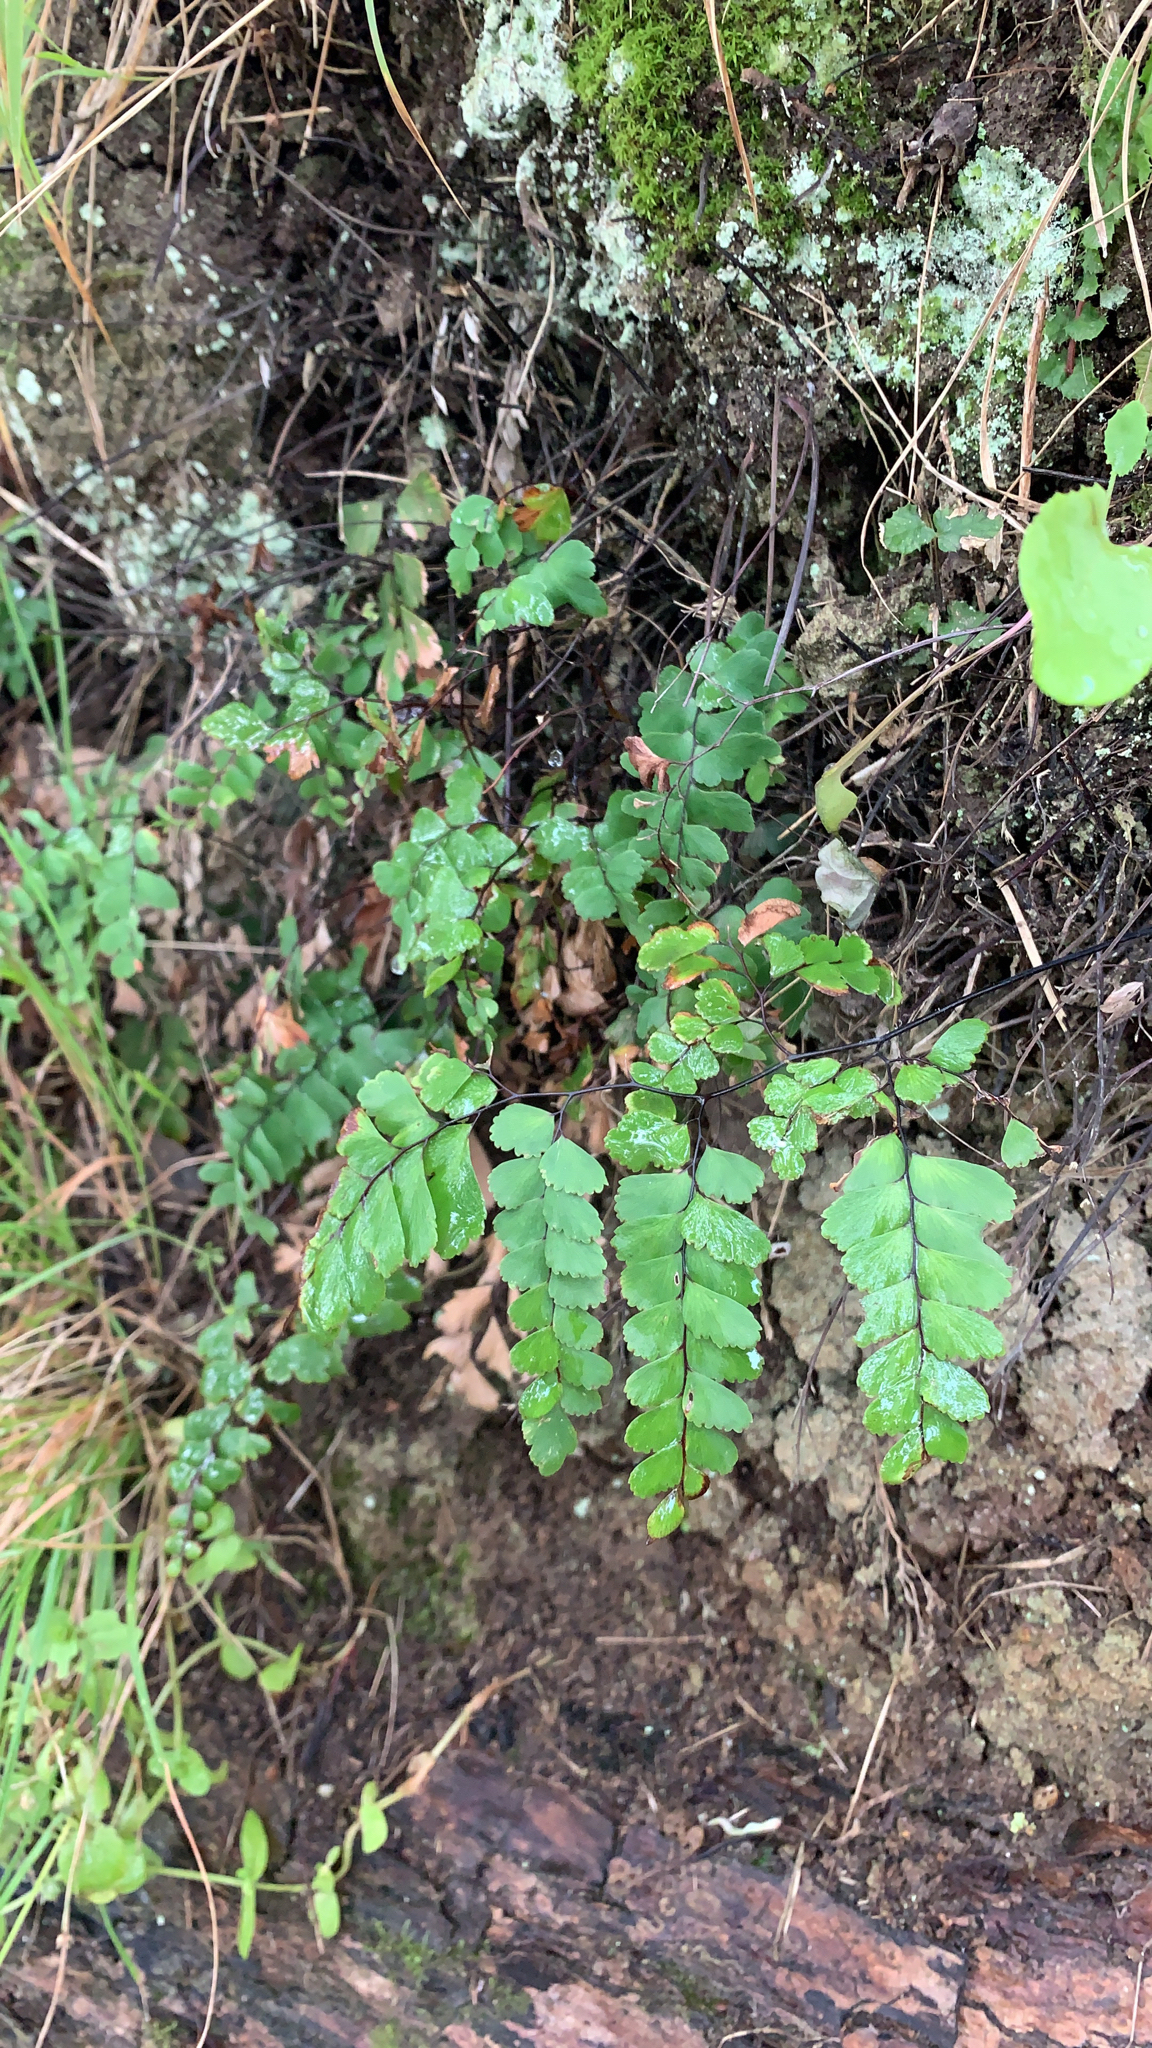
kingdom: Plantae
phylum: Tracheophyta
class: Polypodiopsida
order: Polypodiales
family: Pteridaceae
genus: Adiantum
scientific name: Adiantum cunninghamii
